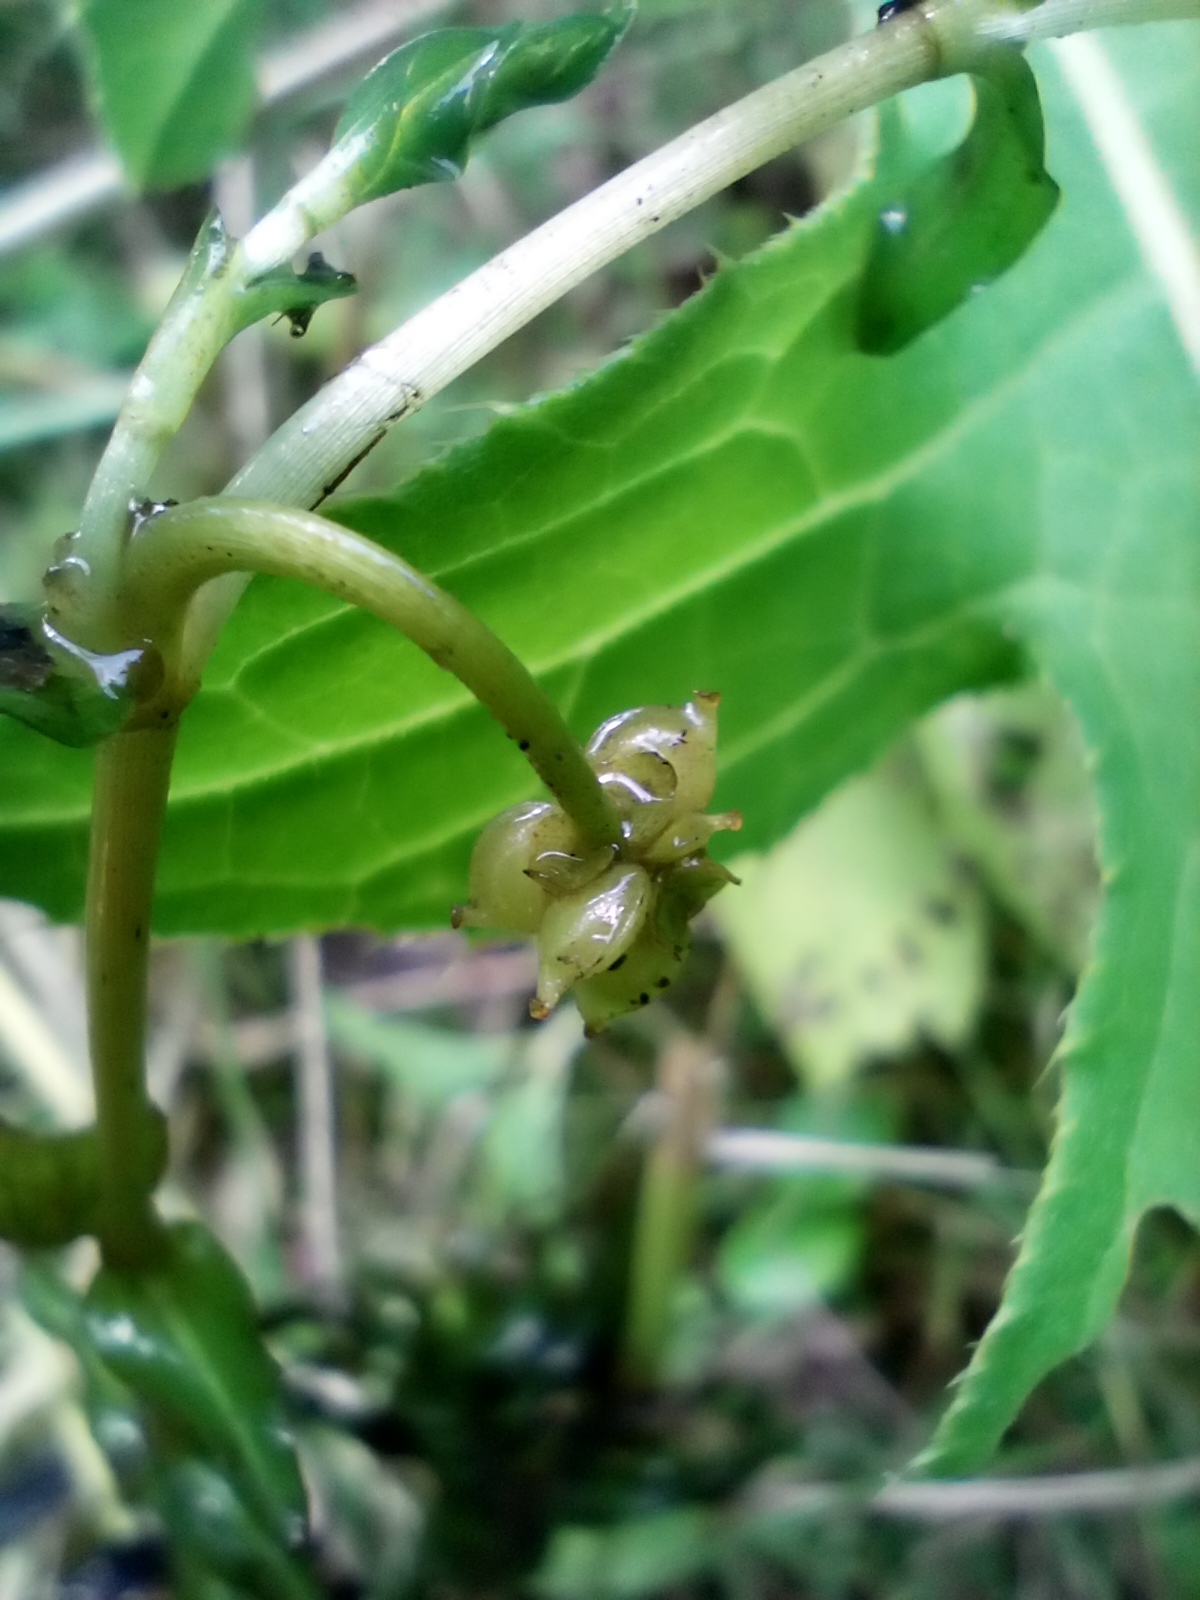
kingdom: Plantae
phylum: Tracheophyta
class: Liliopsida
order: Alismatales
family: Potamogetonaceae
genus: Groenlandia
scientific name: Groenlandia densa
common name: Opposite-leaved pondweed
